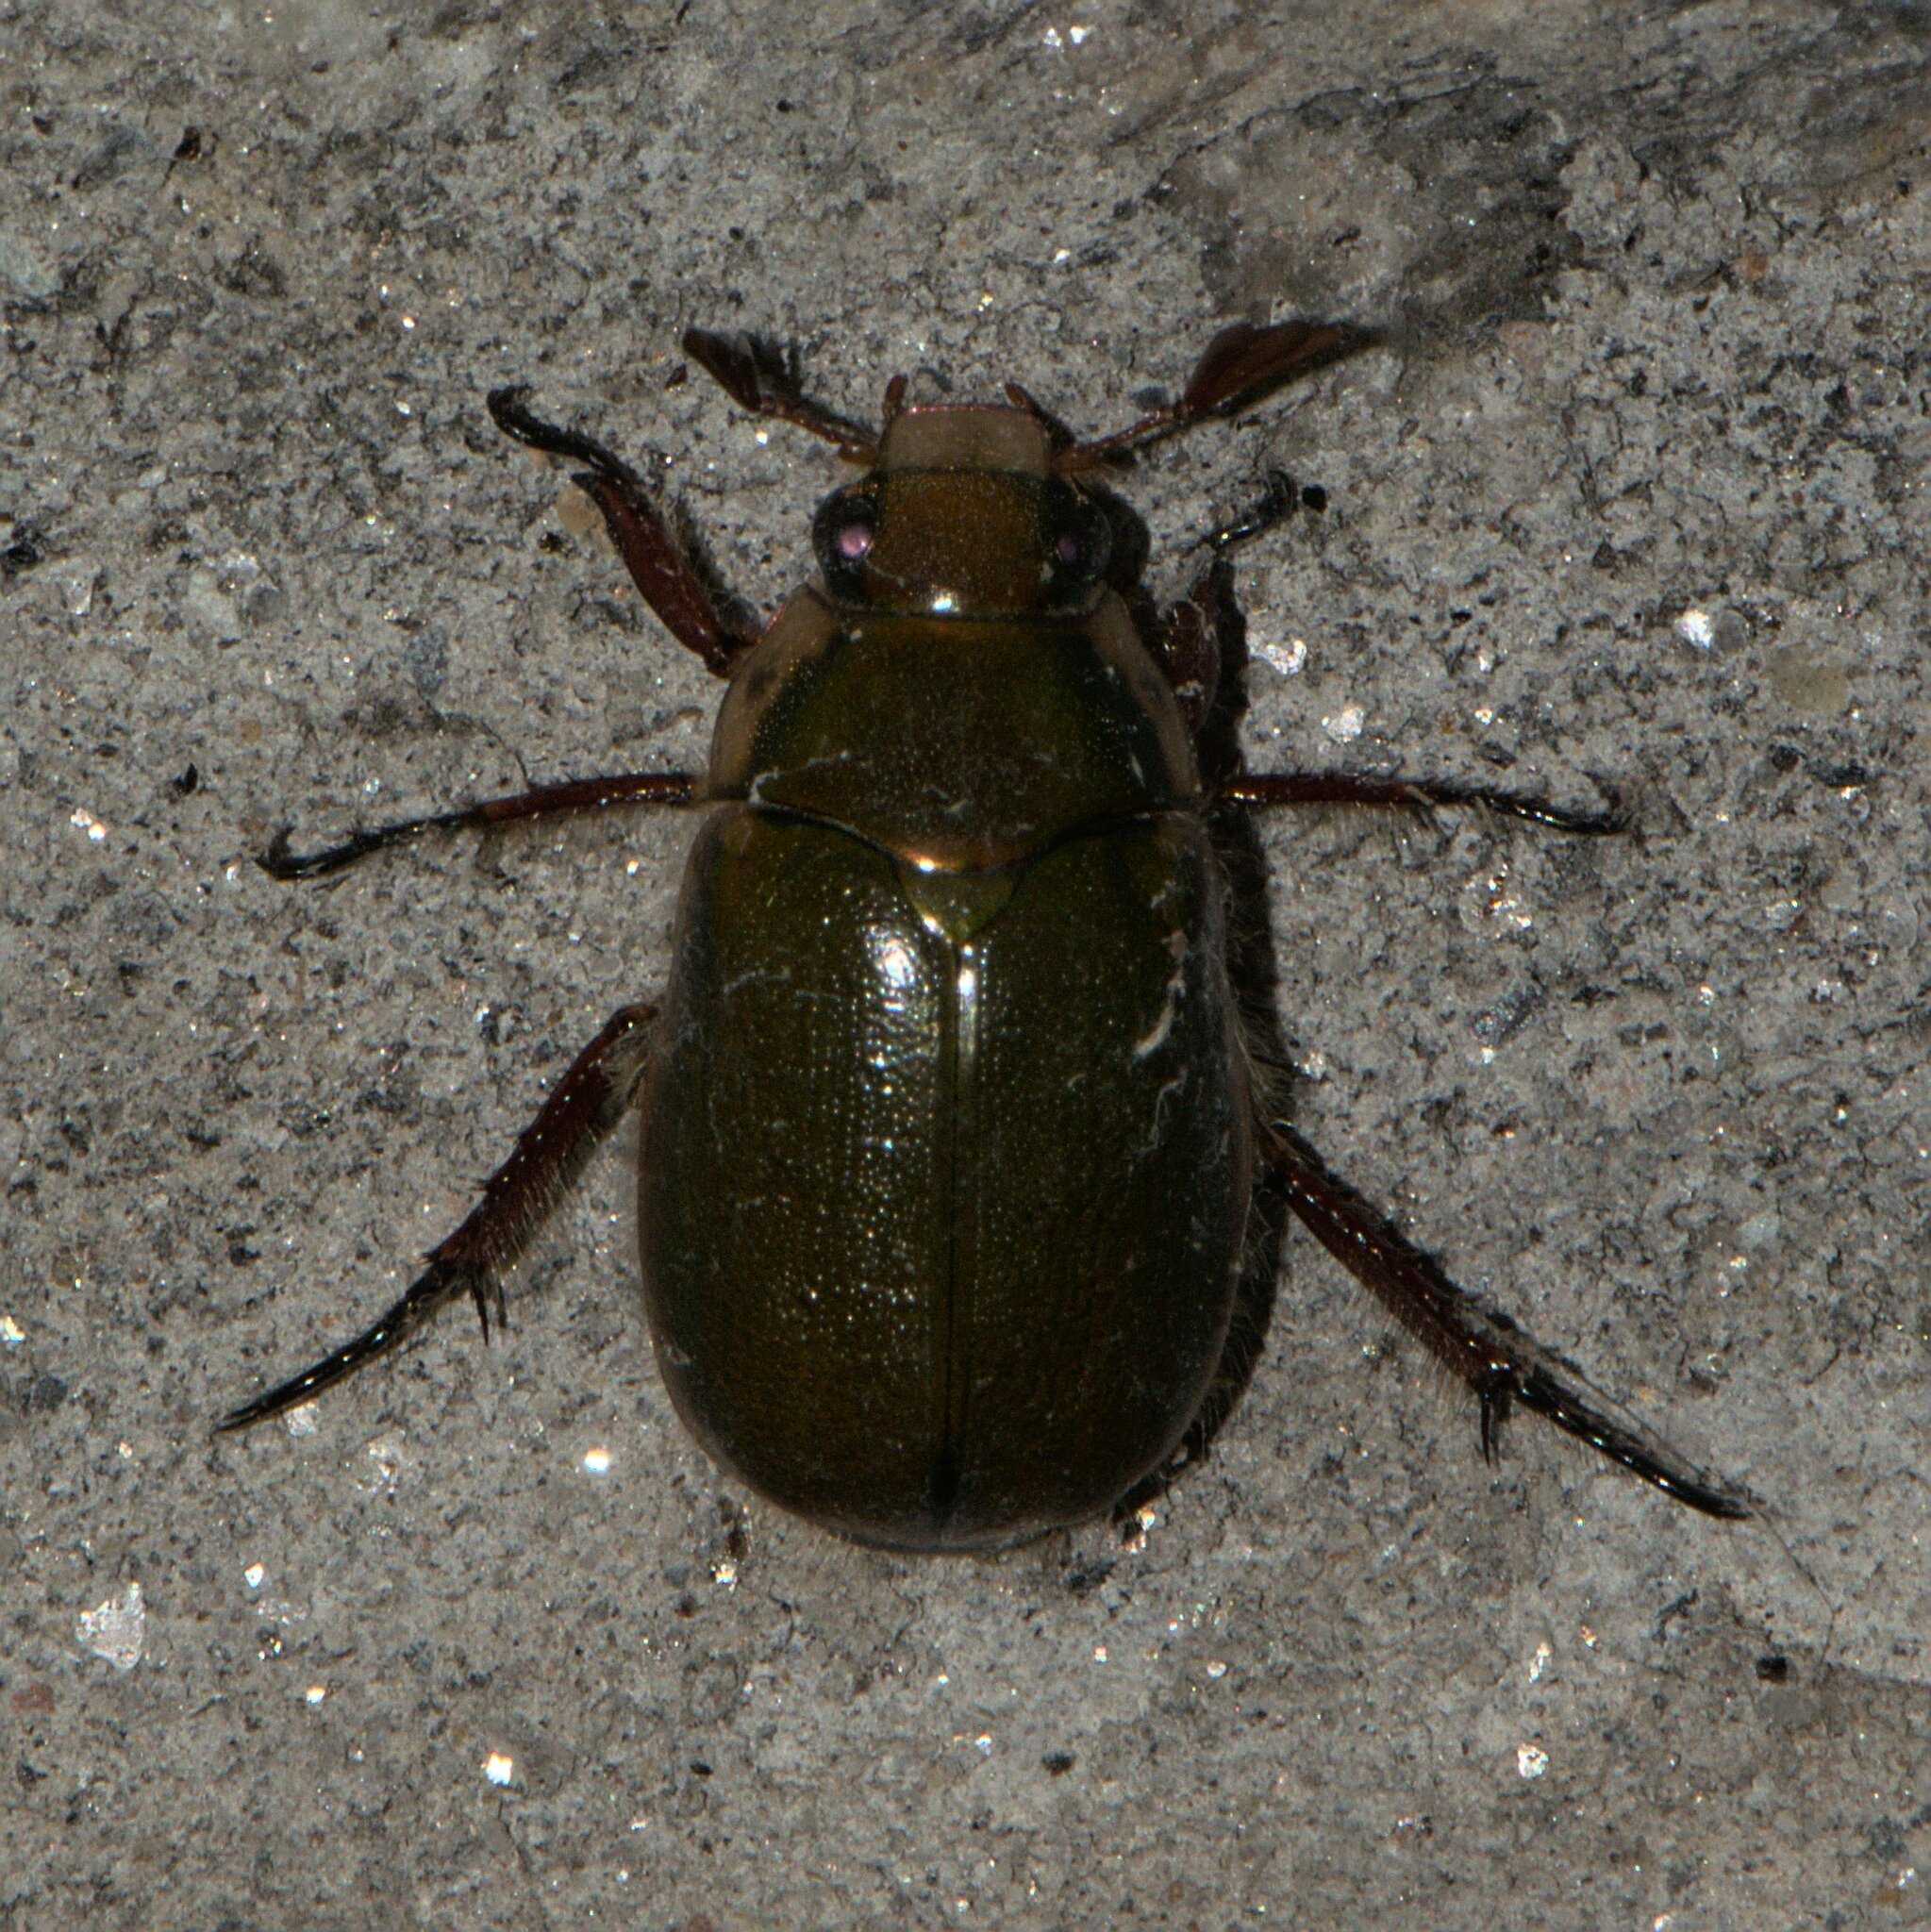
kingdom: Animalia
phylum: Arthropoda
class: Insecta
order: Coleoptera
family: Scarabaeidae
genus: Mimela
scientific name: Mimela passerinii
